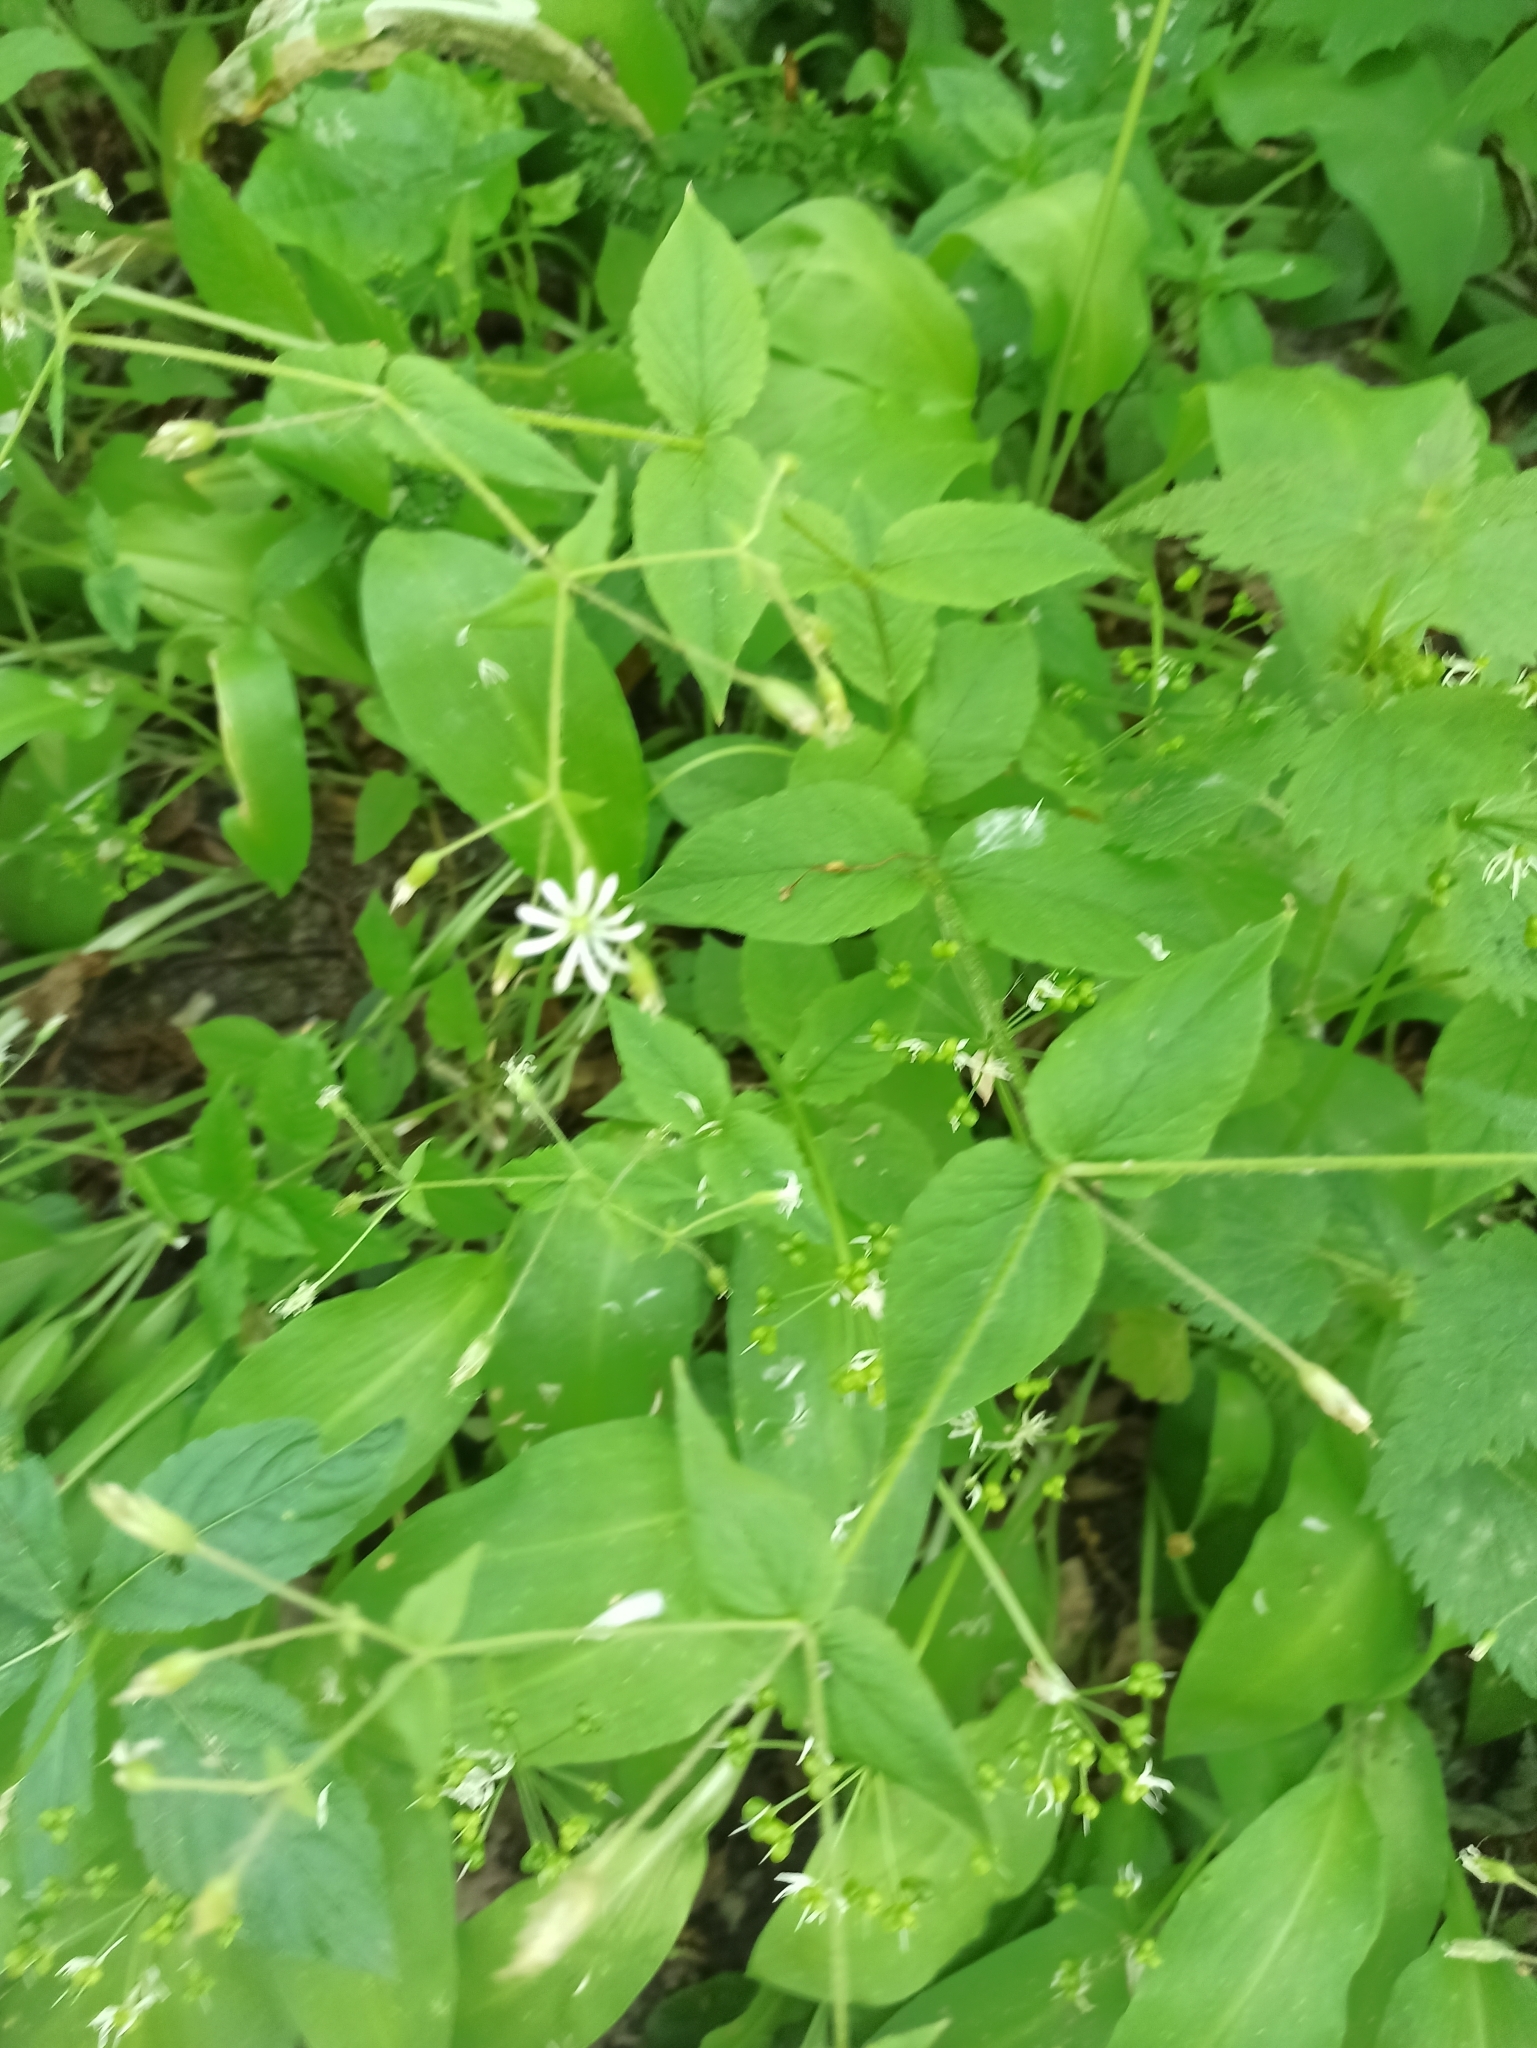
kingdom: Plantae
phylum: Tracheophyta
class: Magnoliopsida
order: Caryophyllales
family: Caryophyllaceae
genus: Stellaria
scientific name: Stellaria nemorum
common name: Wood stitchwort
